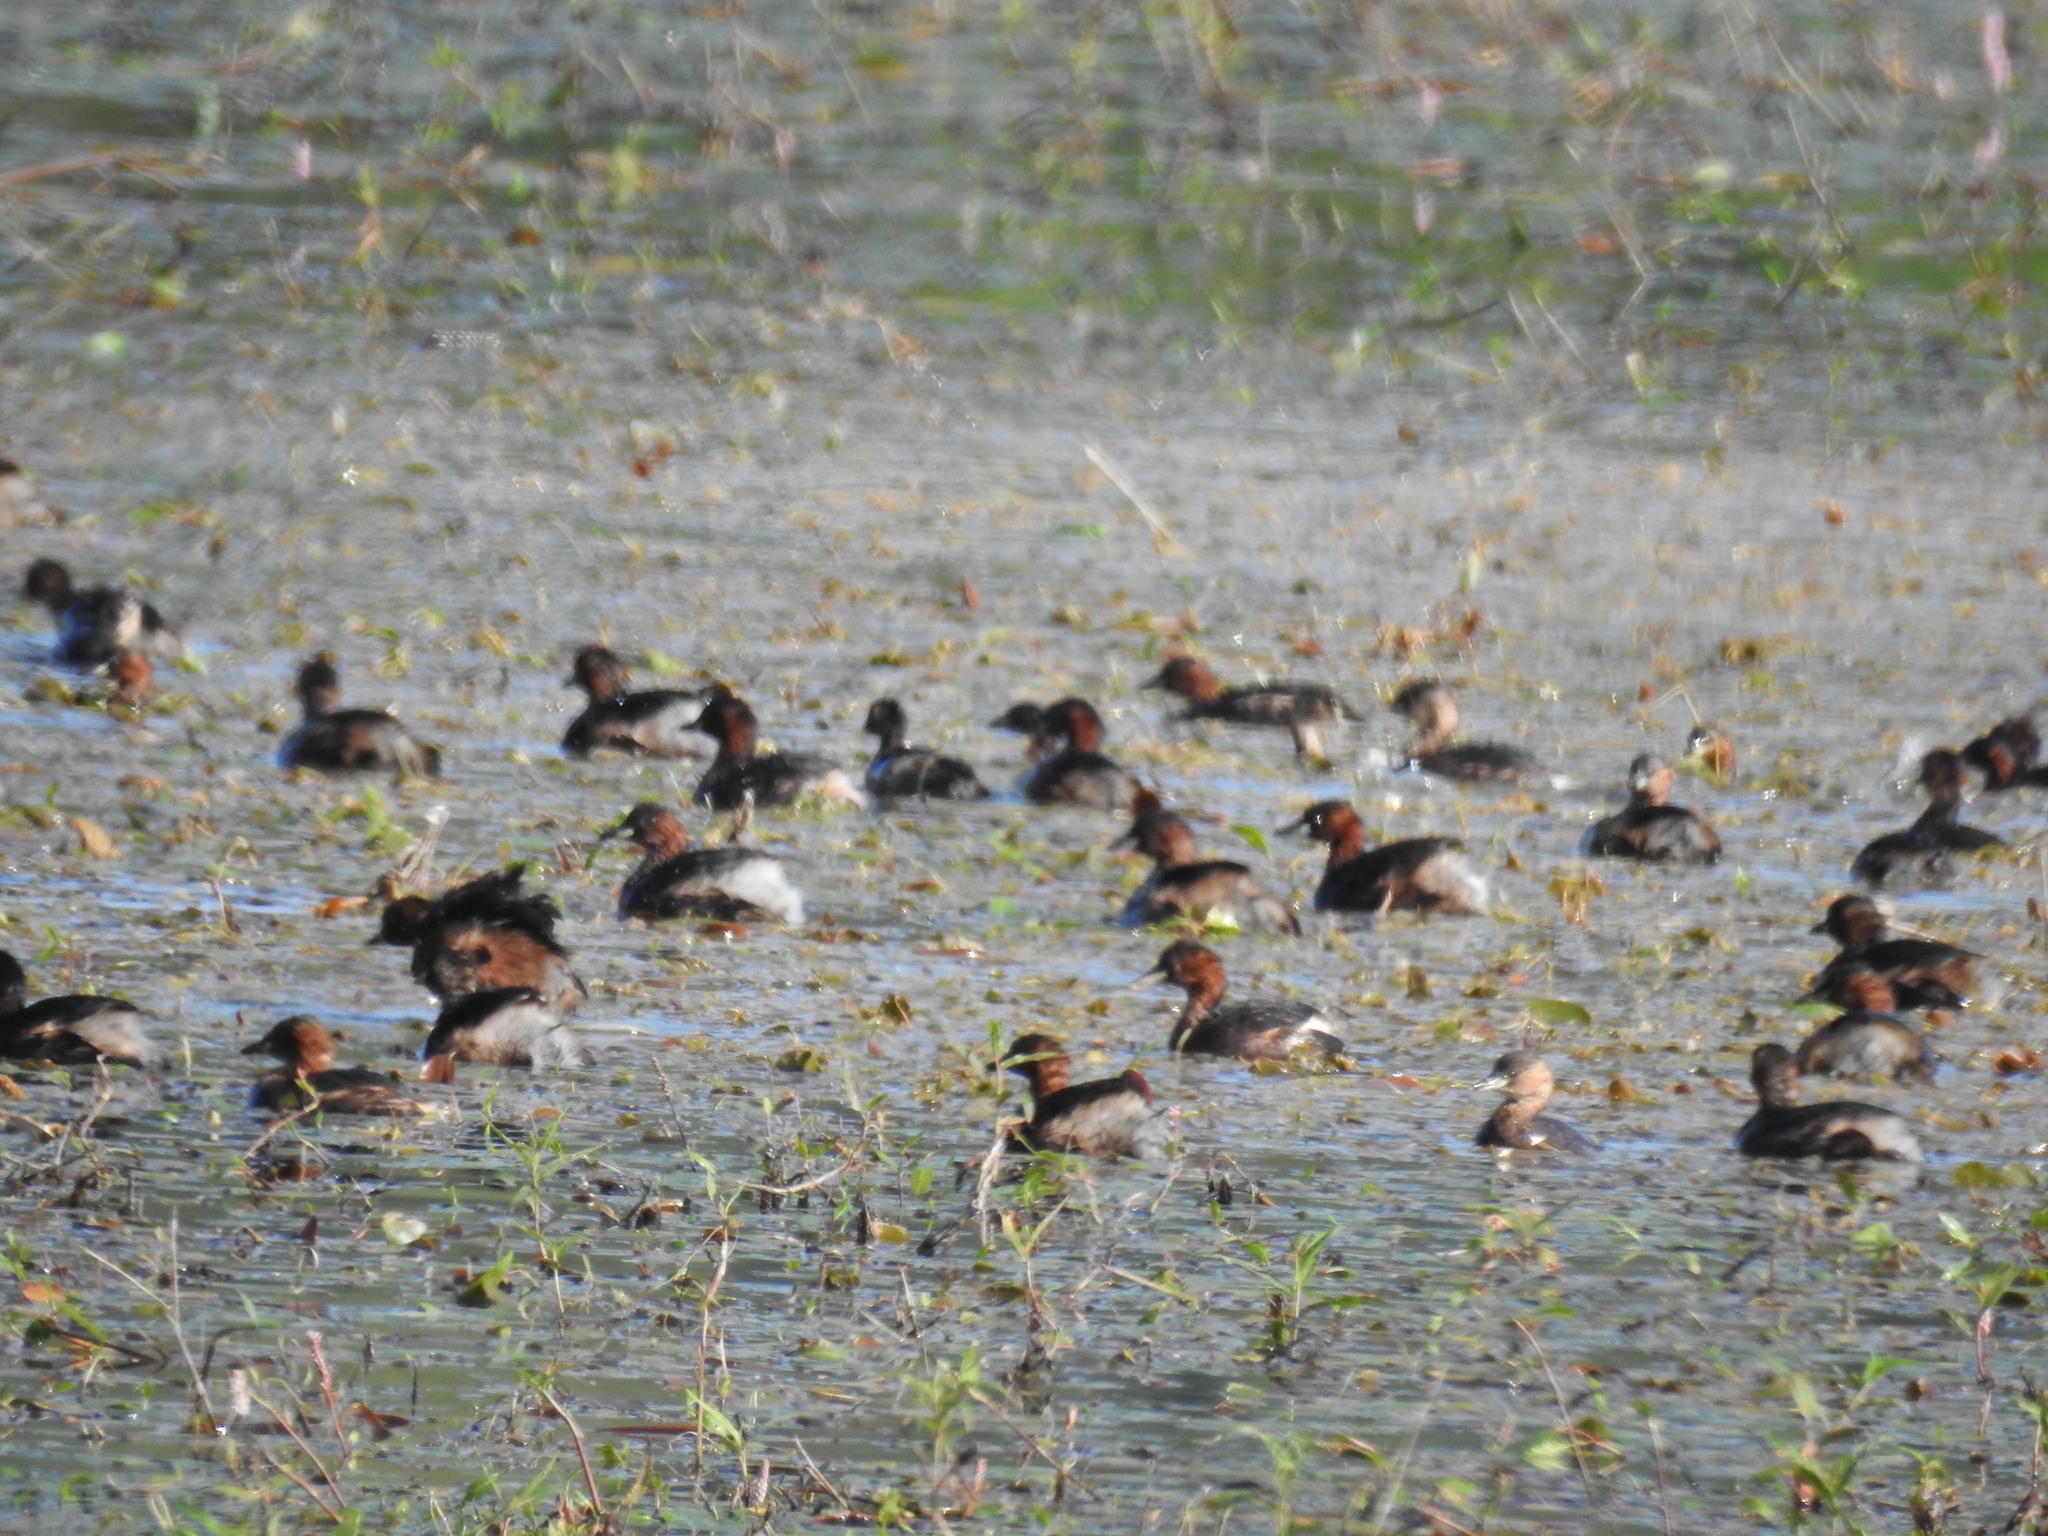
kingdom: Animalia
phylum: Chordata
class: Aves
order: Podicipediformes
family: Podicipedidae
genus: Tachybaptus
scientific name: Tachybaptus ruficollis
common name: Little grebe
